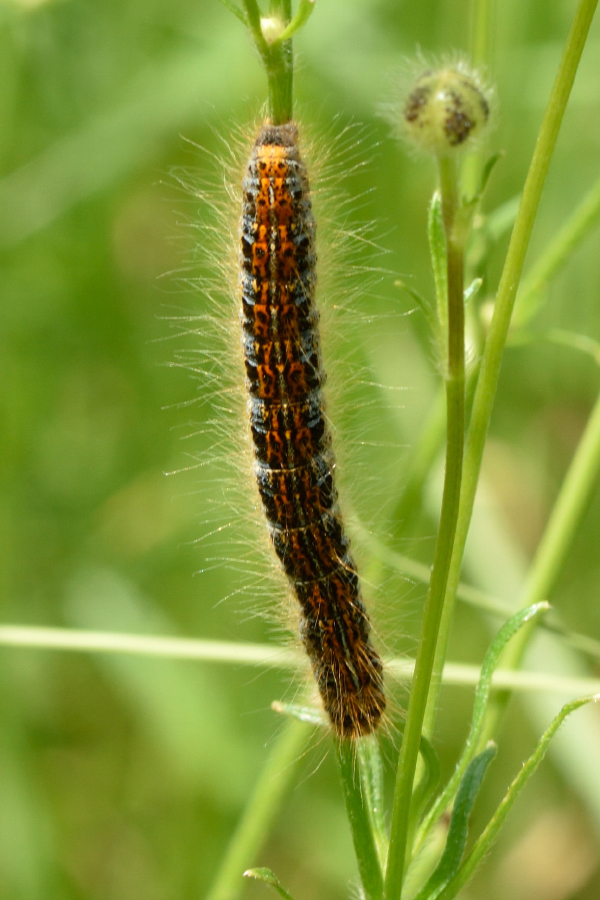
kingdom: Animalia
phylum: Arthropoda
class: Insecta
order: Lepidoptera
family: Lasiocampidae
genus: Malacosoma
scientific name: Malacosoma castrense
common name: Ground lackey
